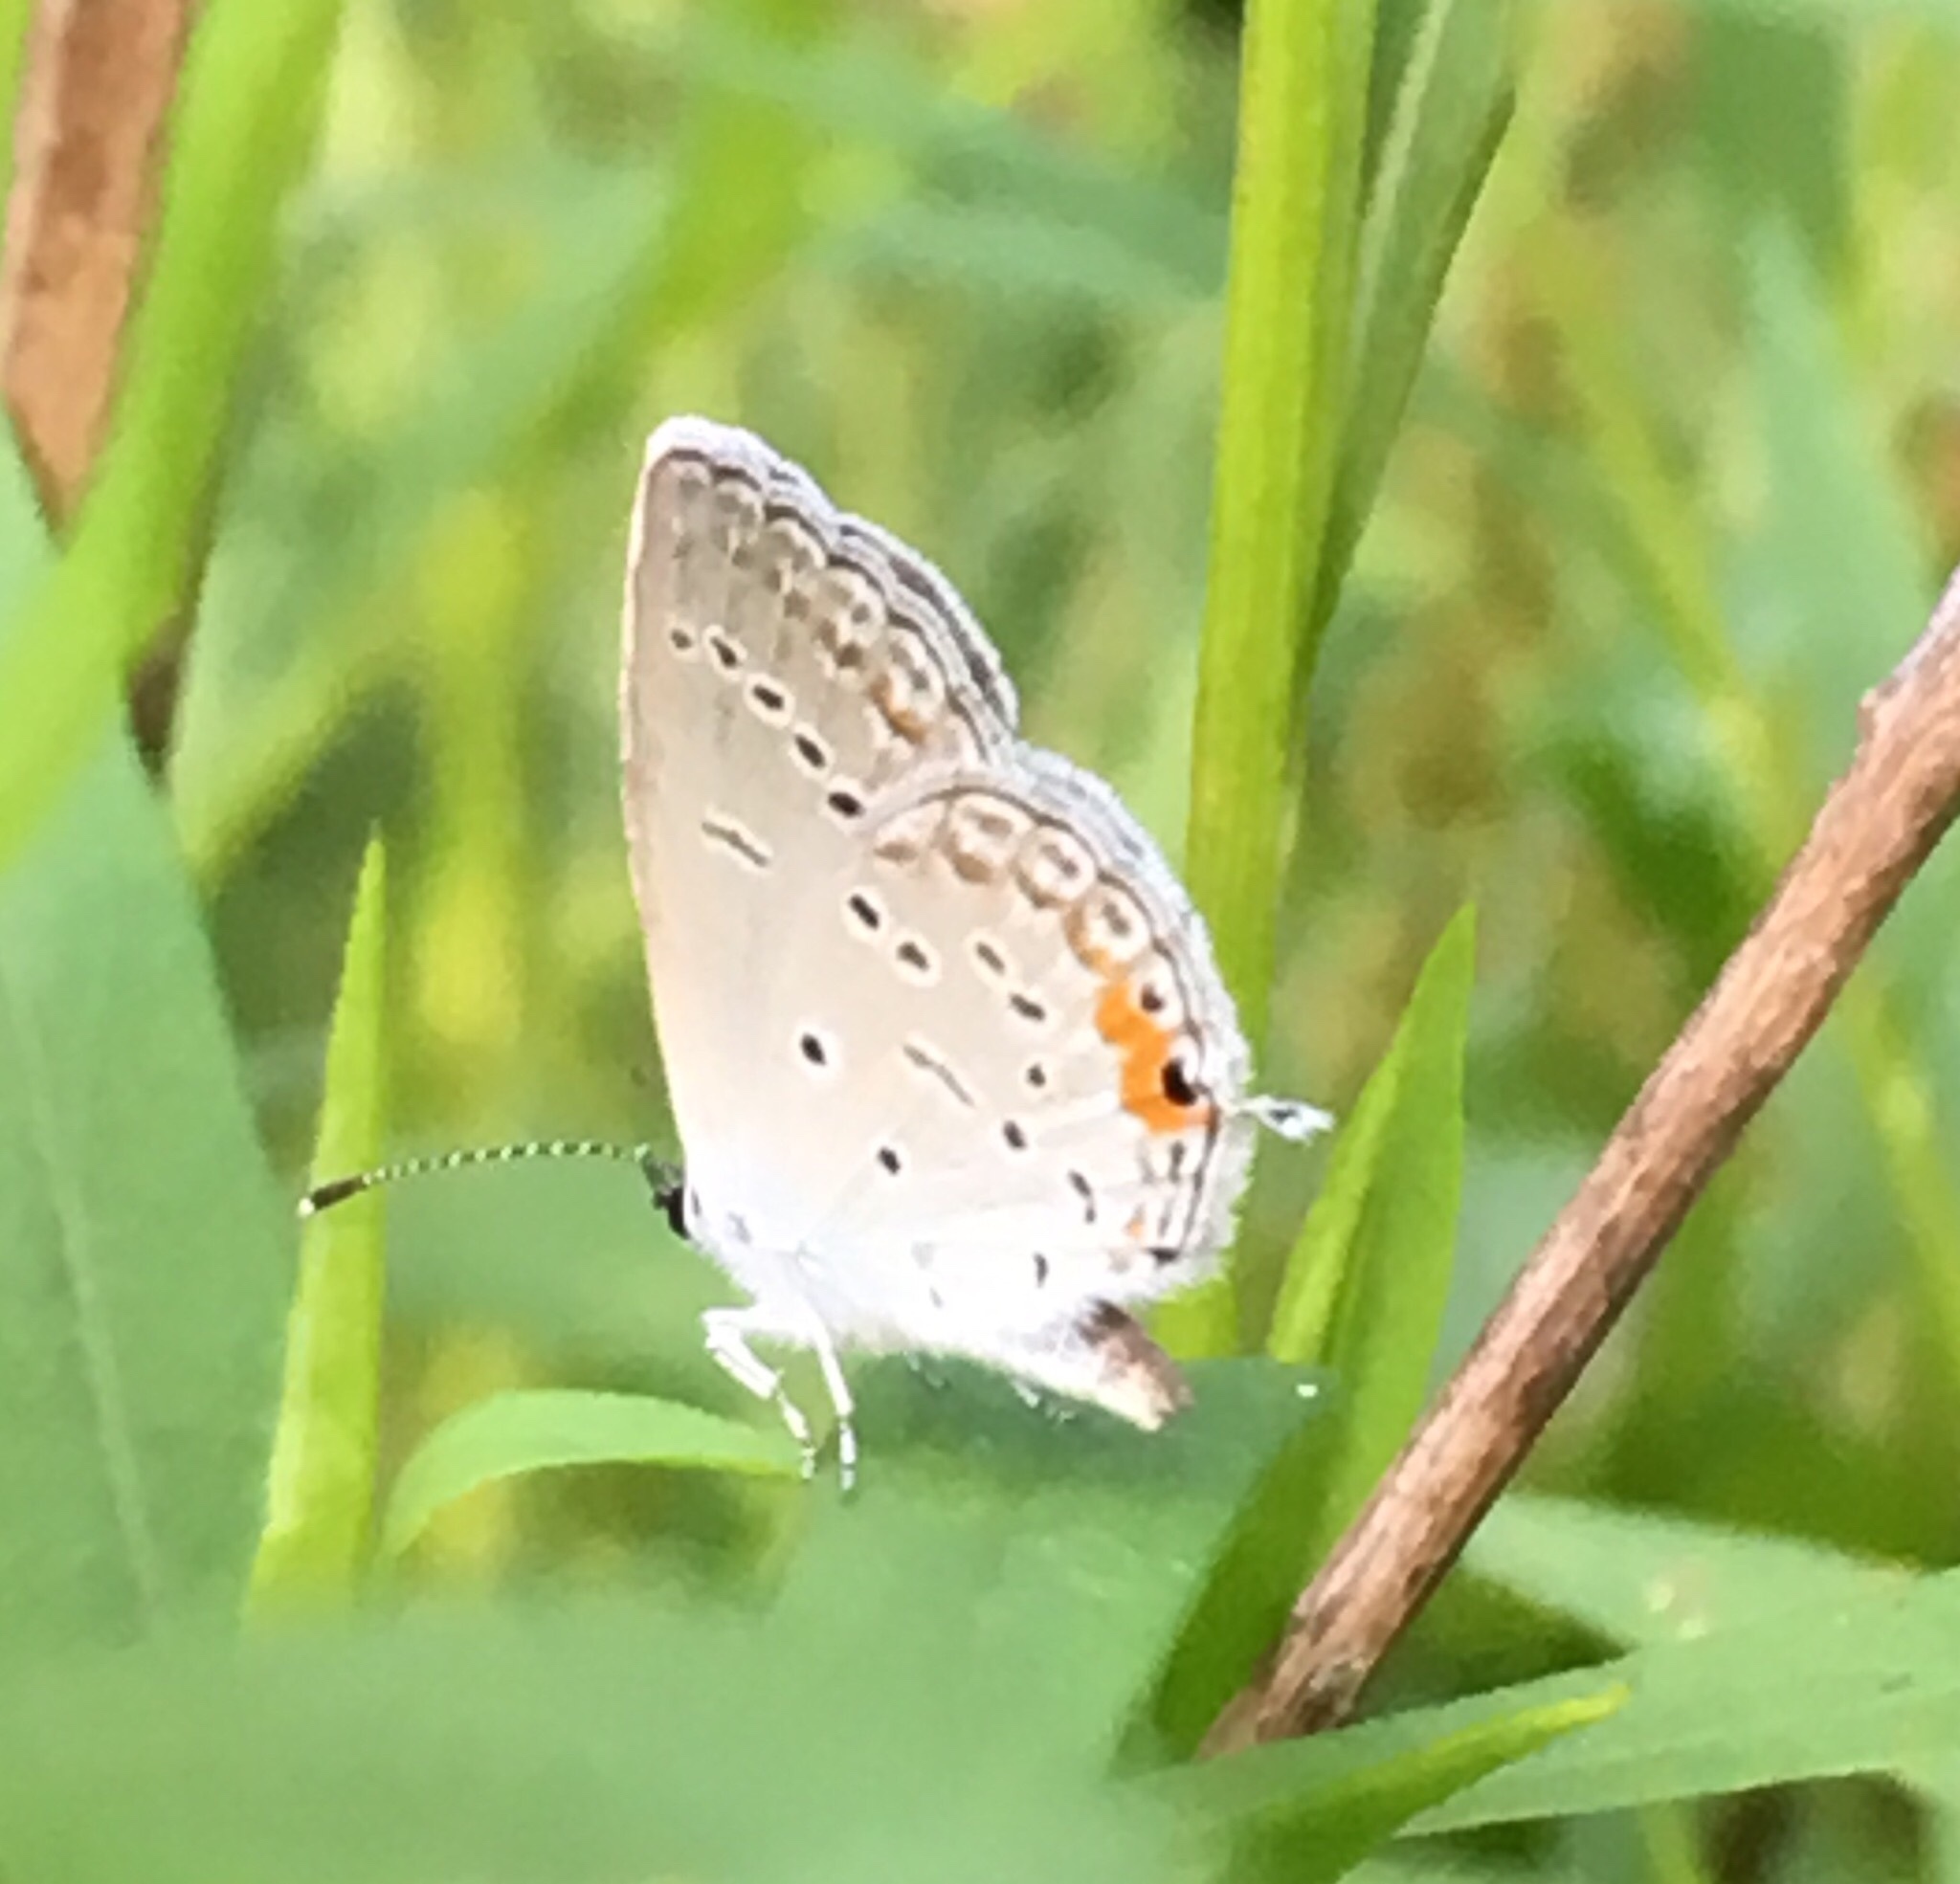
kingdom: Animalia
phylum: Arthropoda
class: Insecta
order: Lepidoptera
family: Lycaenidae
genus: Elkalyce
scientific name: Elkalyce comyntas
